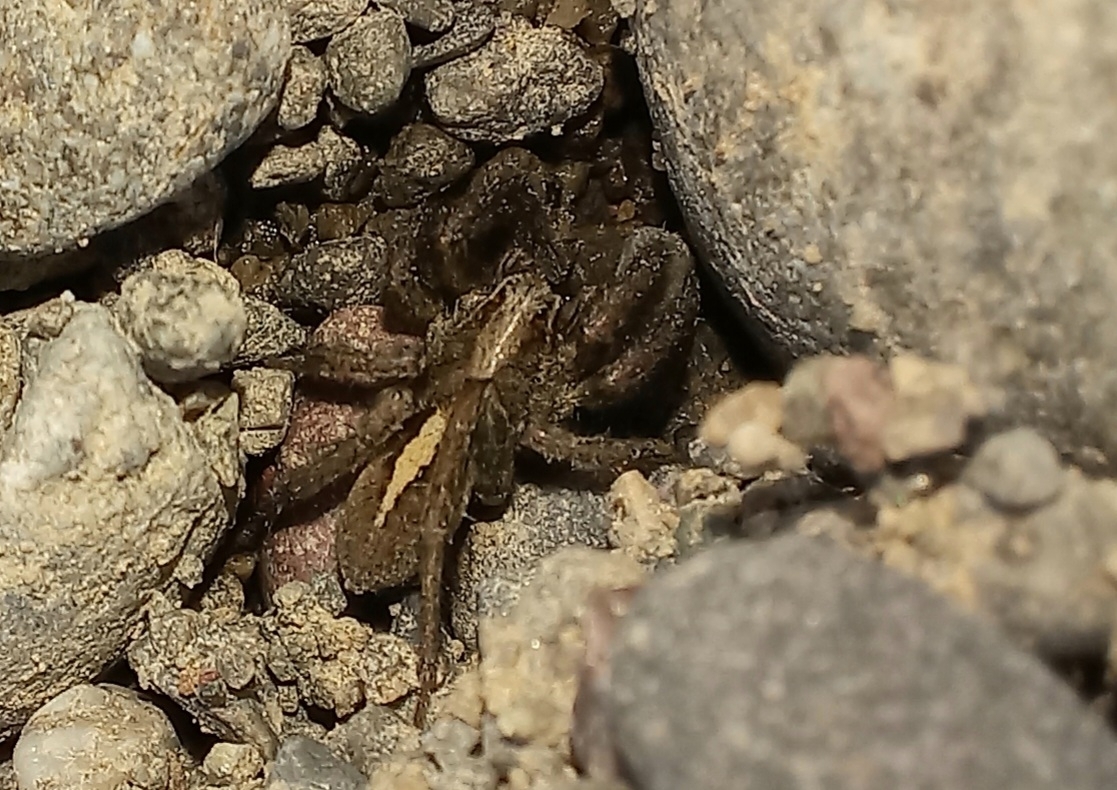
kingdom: Animalia
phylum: Arthropoda
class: Arachnida
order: Araneae
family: Lycosidae
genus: Anoteropsis
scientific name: Anoteropsis hilaris
